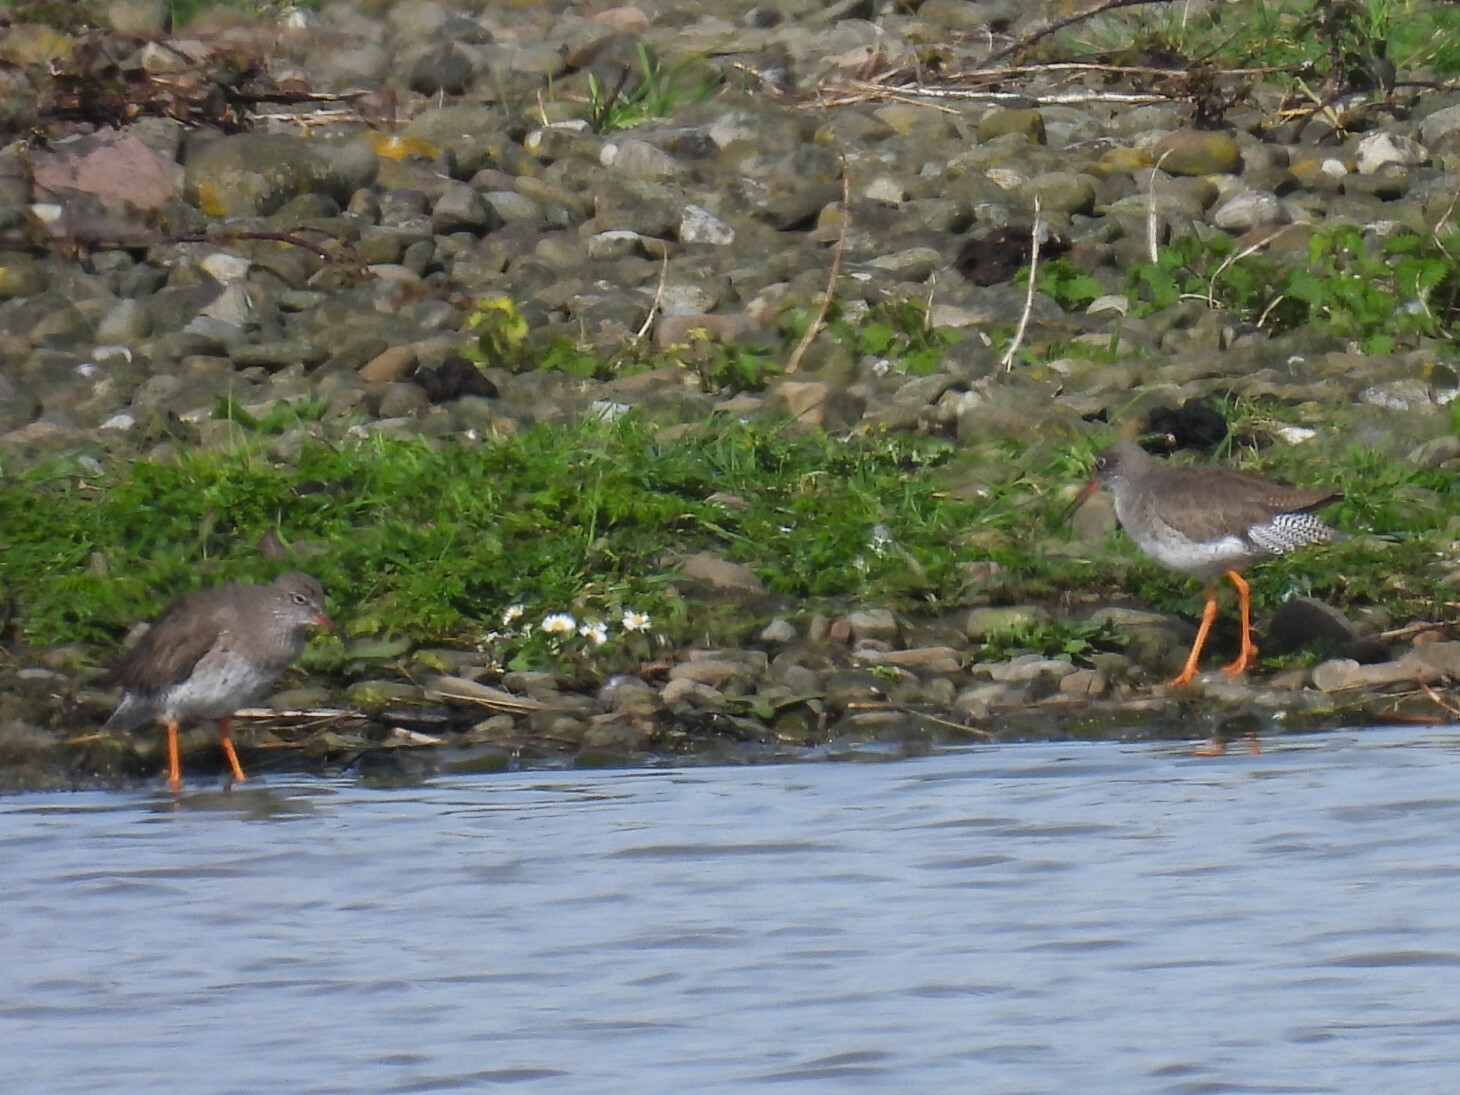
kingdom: Animalia
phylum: Chordata
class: Aves
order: Charadriiformes
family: Scolopacidae
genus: Tringa
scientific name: Tringa totanus
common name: Common redshank
